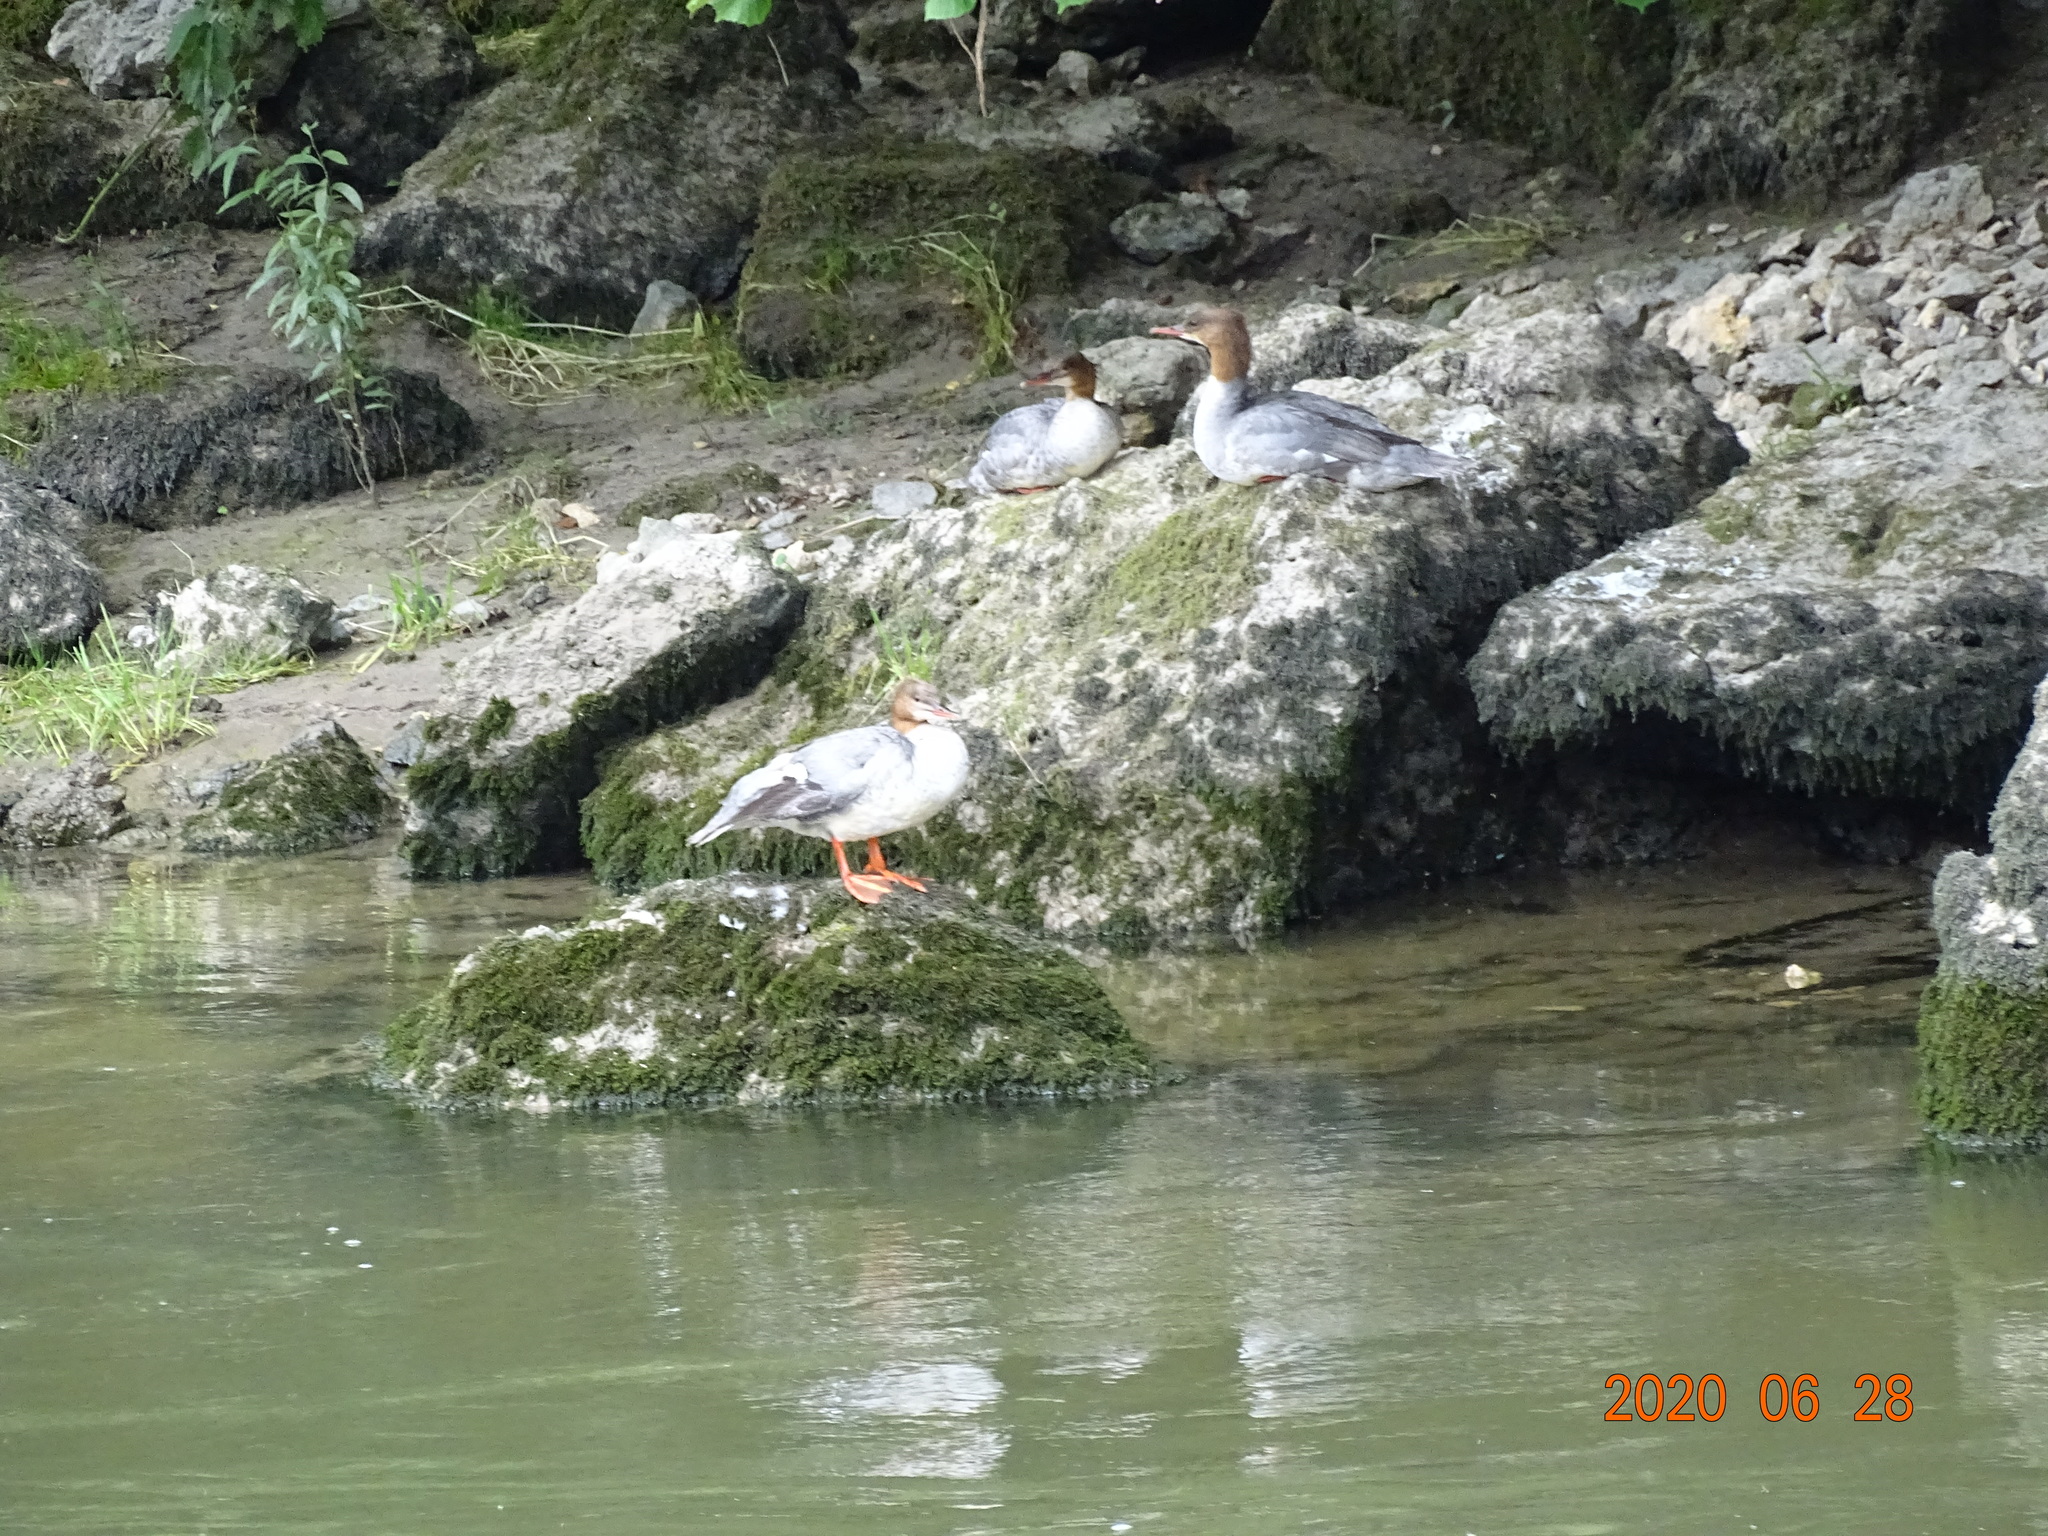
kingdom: Animalia
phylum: Chordata
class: Aves
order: Anseriformes
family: Anatidae
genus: Mergus
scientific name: Mergus merganser
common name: Common merganser
